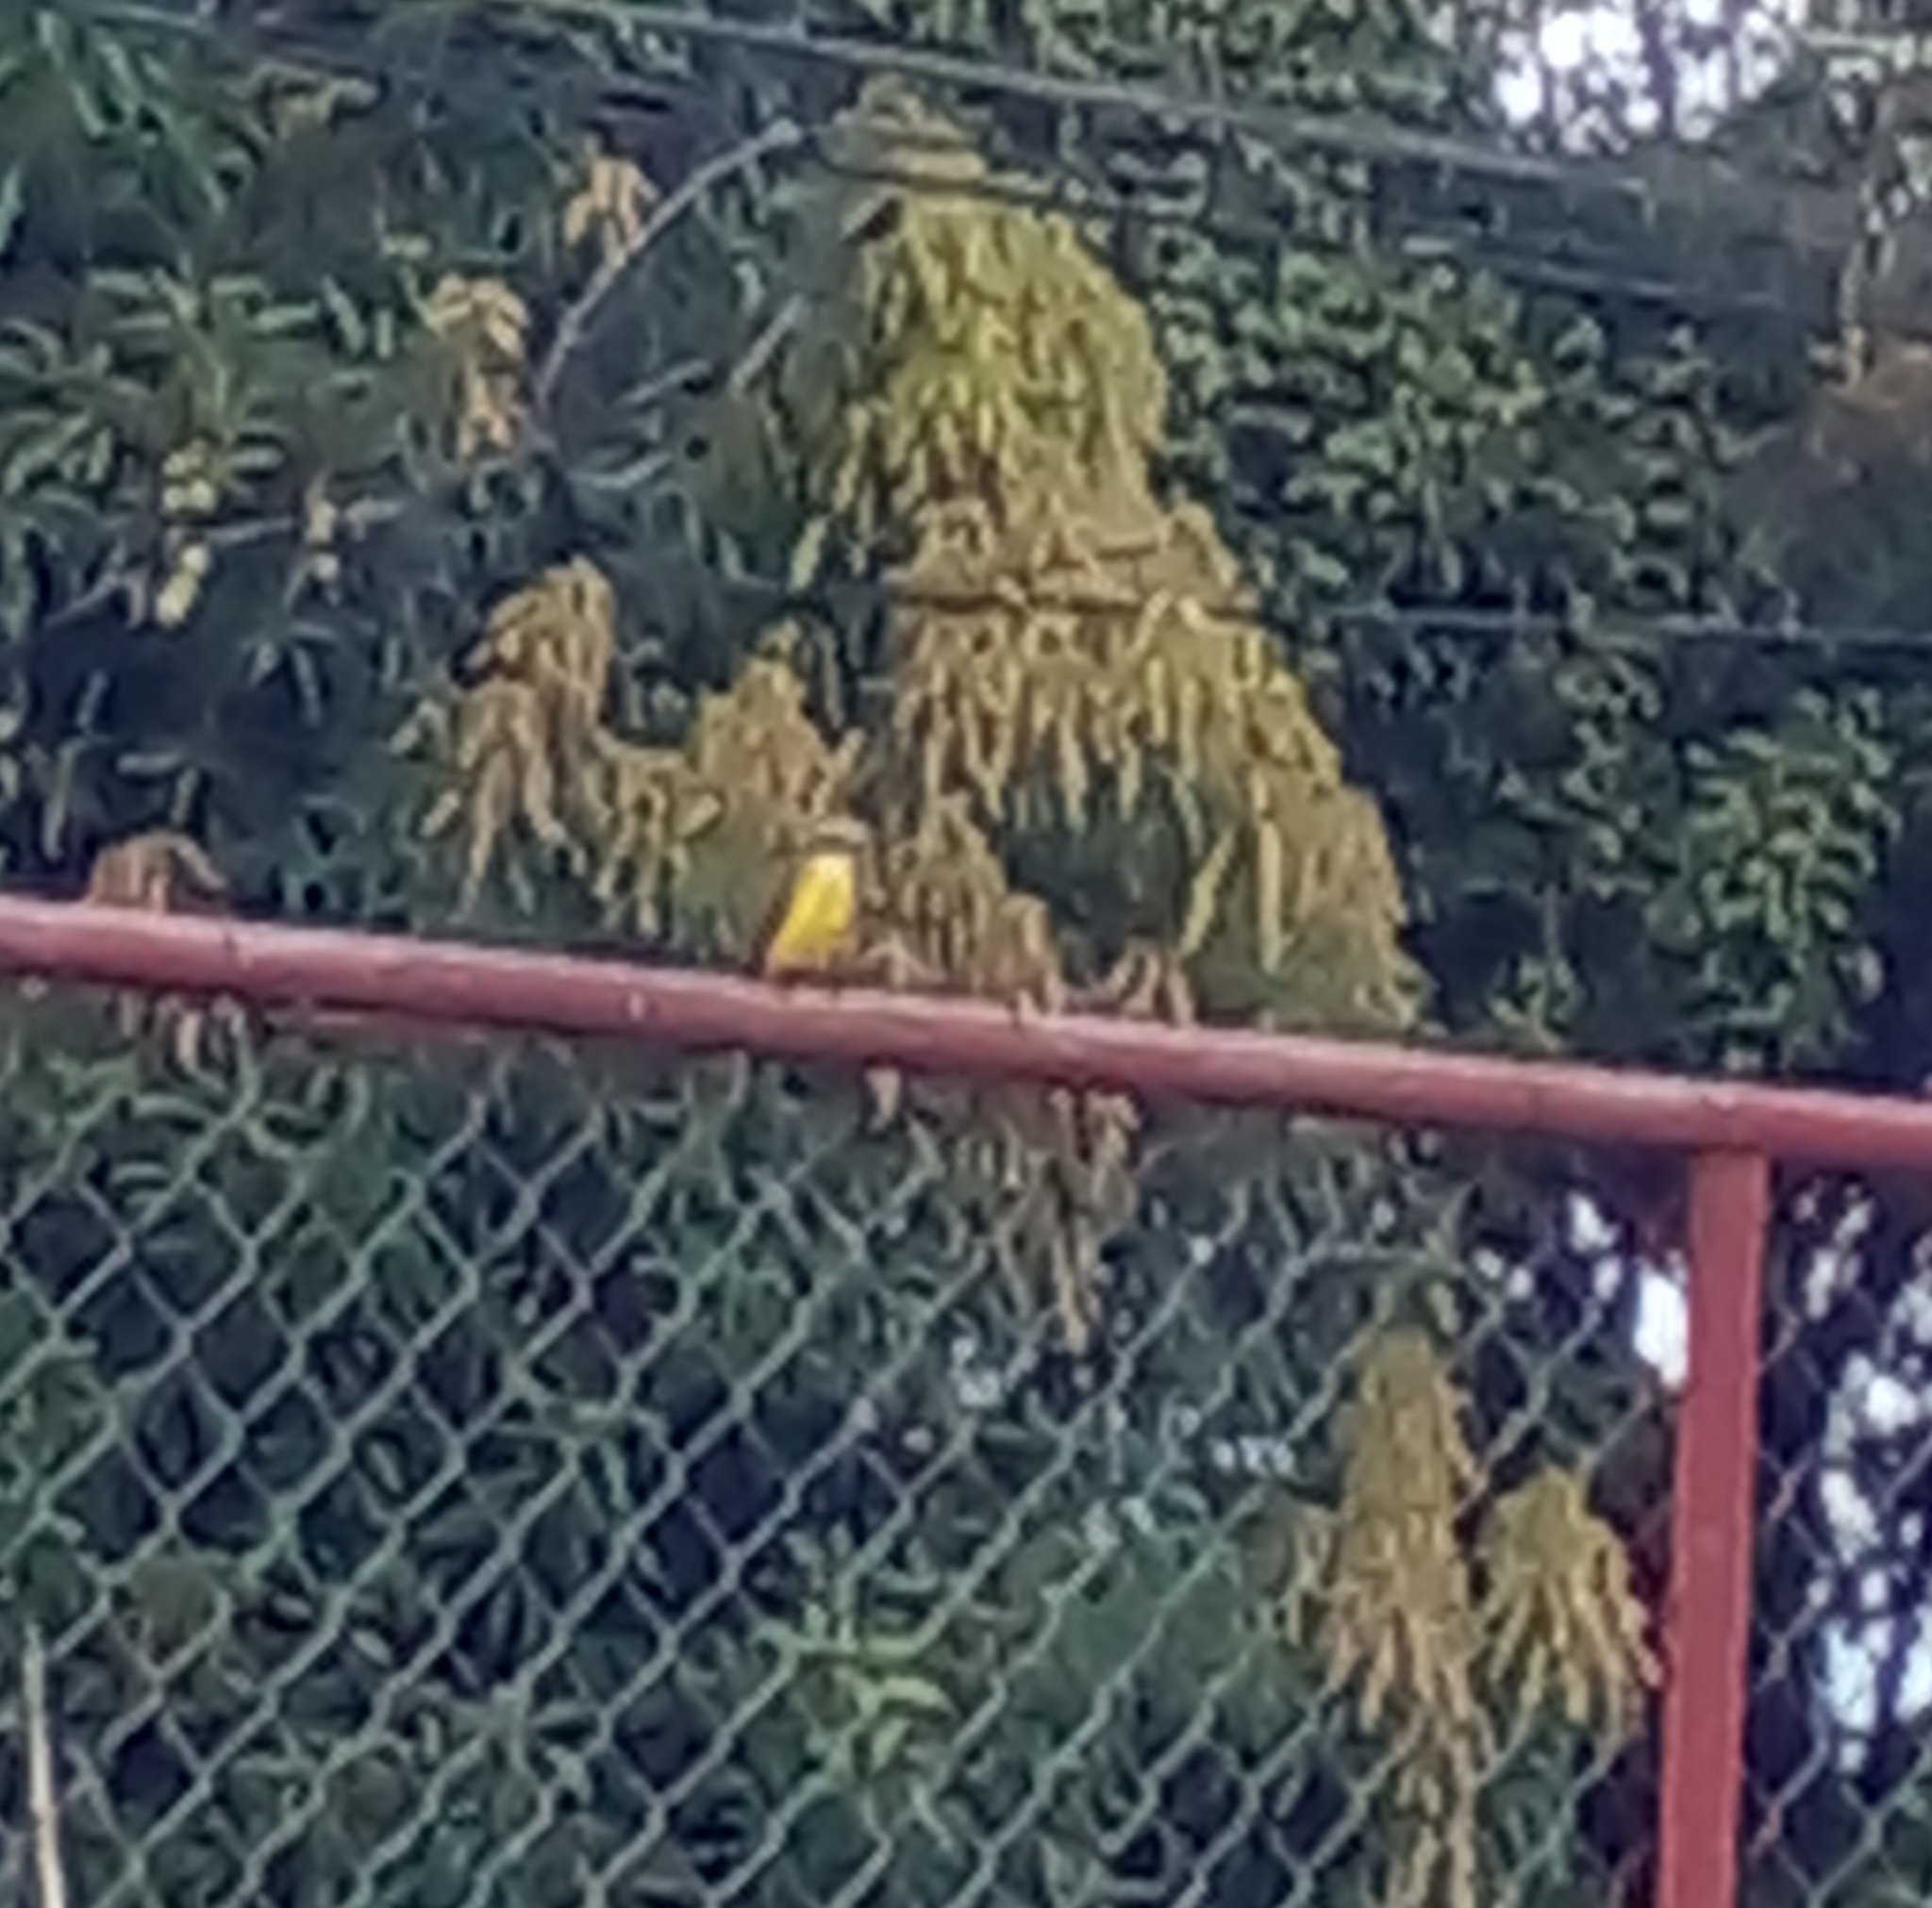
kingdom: Animalia
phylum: Chordata
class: Aves
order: Passeriformes
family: Tyrannidae
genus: Pitangus
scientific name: Pitangus sulphuratus
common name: Great kiskadee
